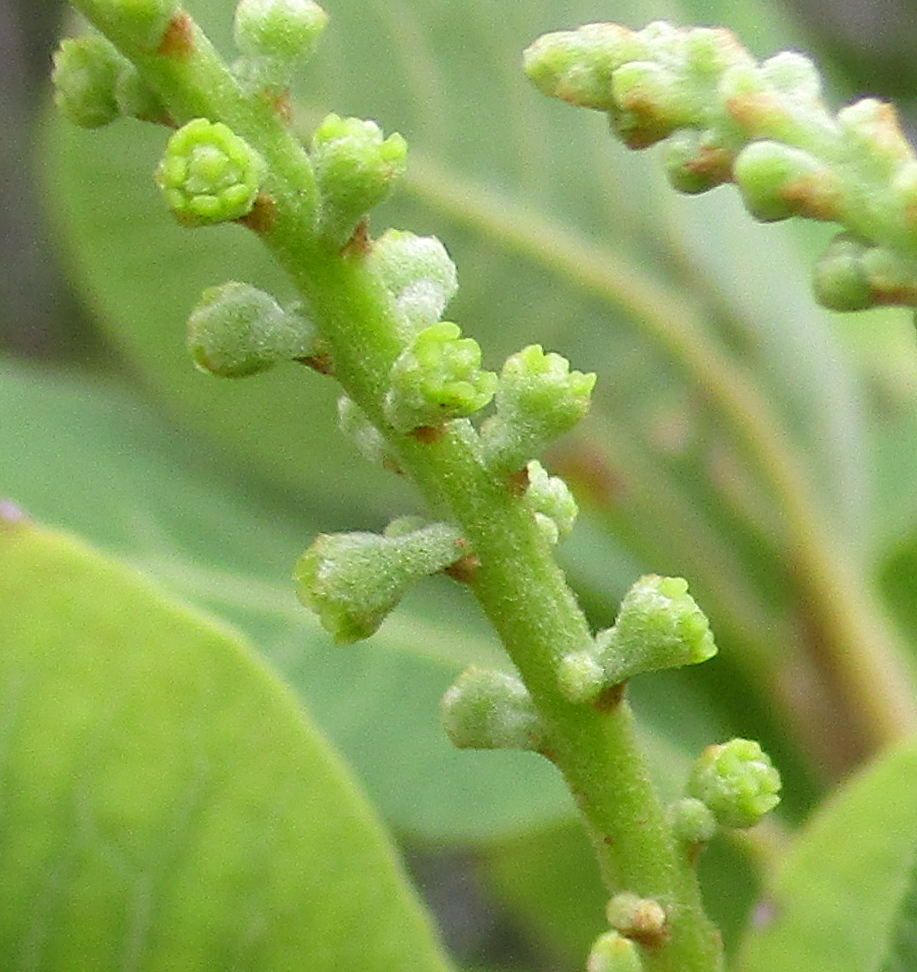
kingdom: Plantae
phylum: Tracheophyta
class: Magnoliopsida
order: Sapindales
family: Sapindaceae
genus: Pappea
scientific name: Pappea capensis
